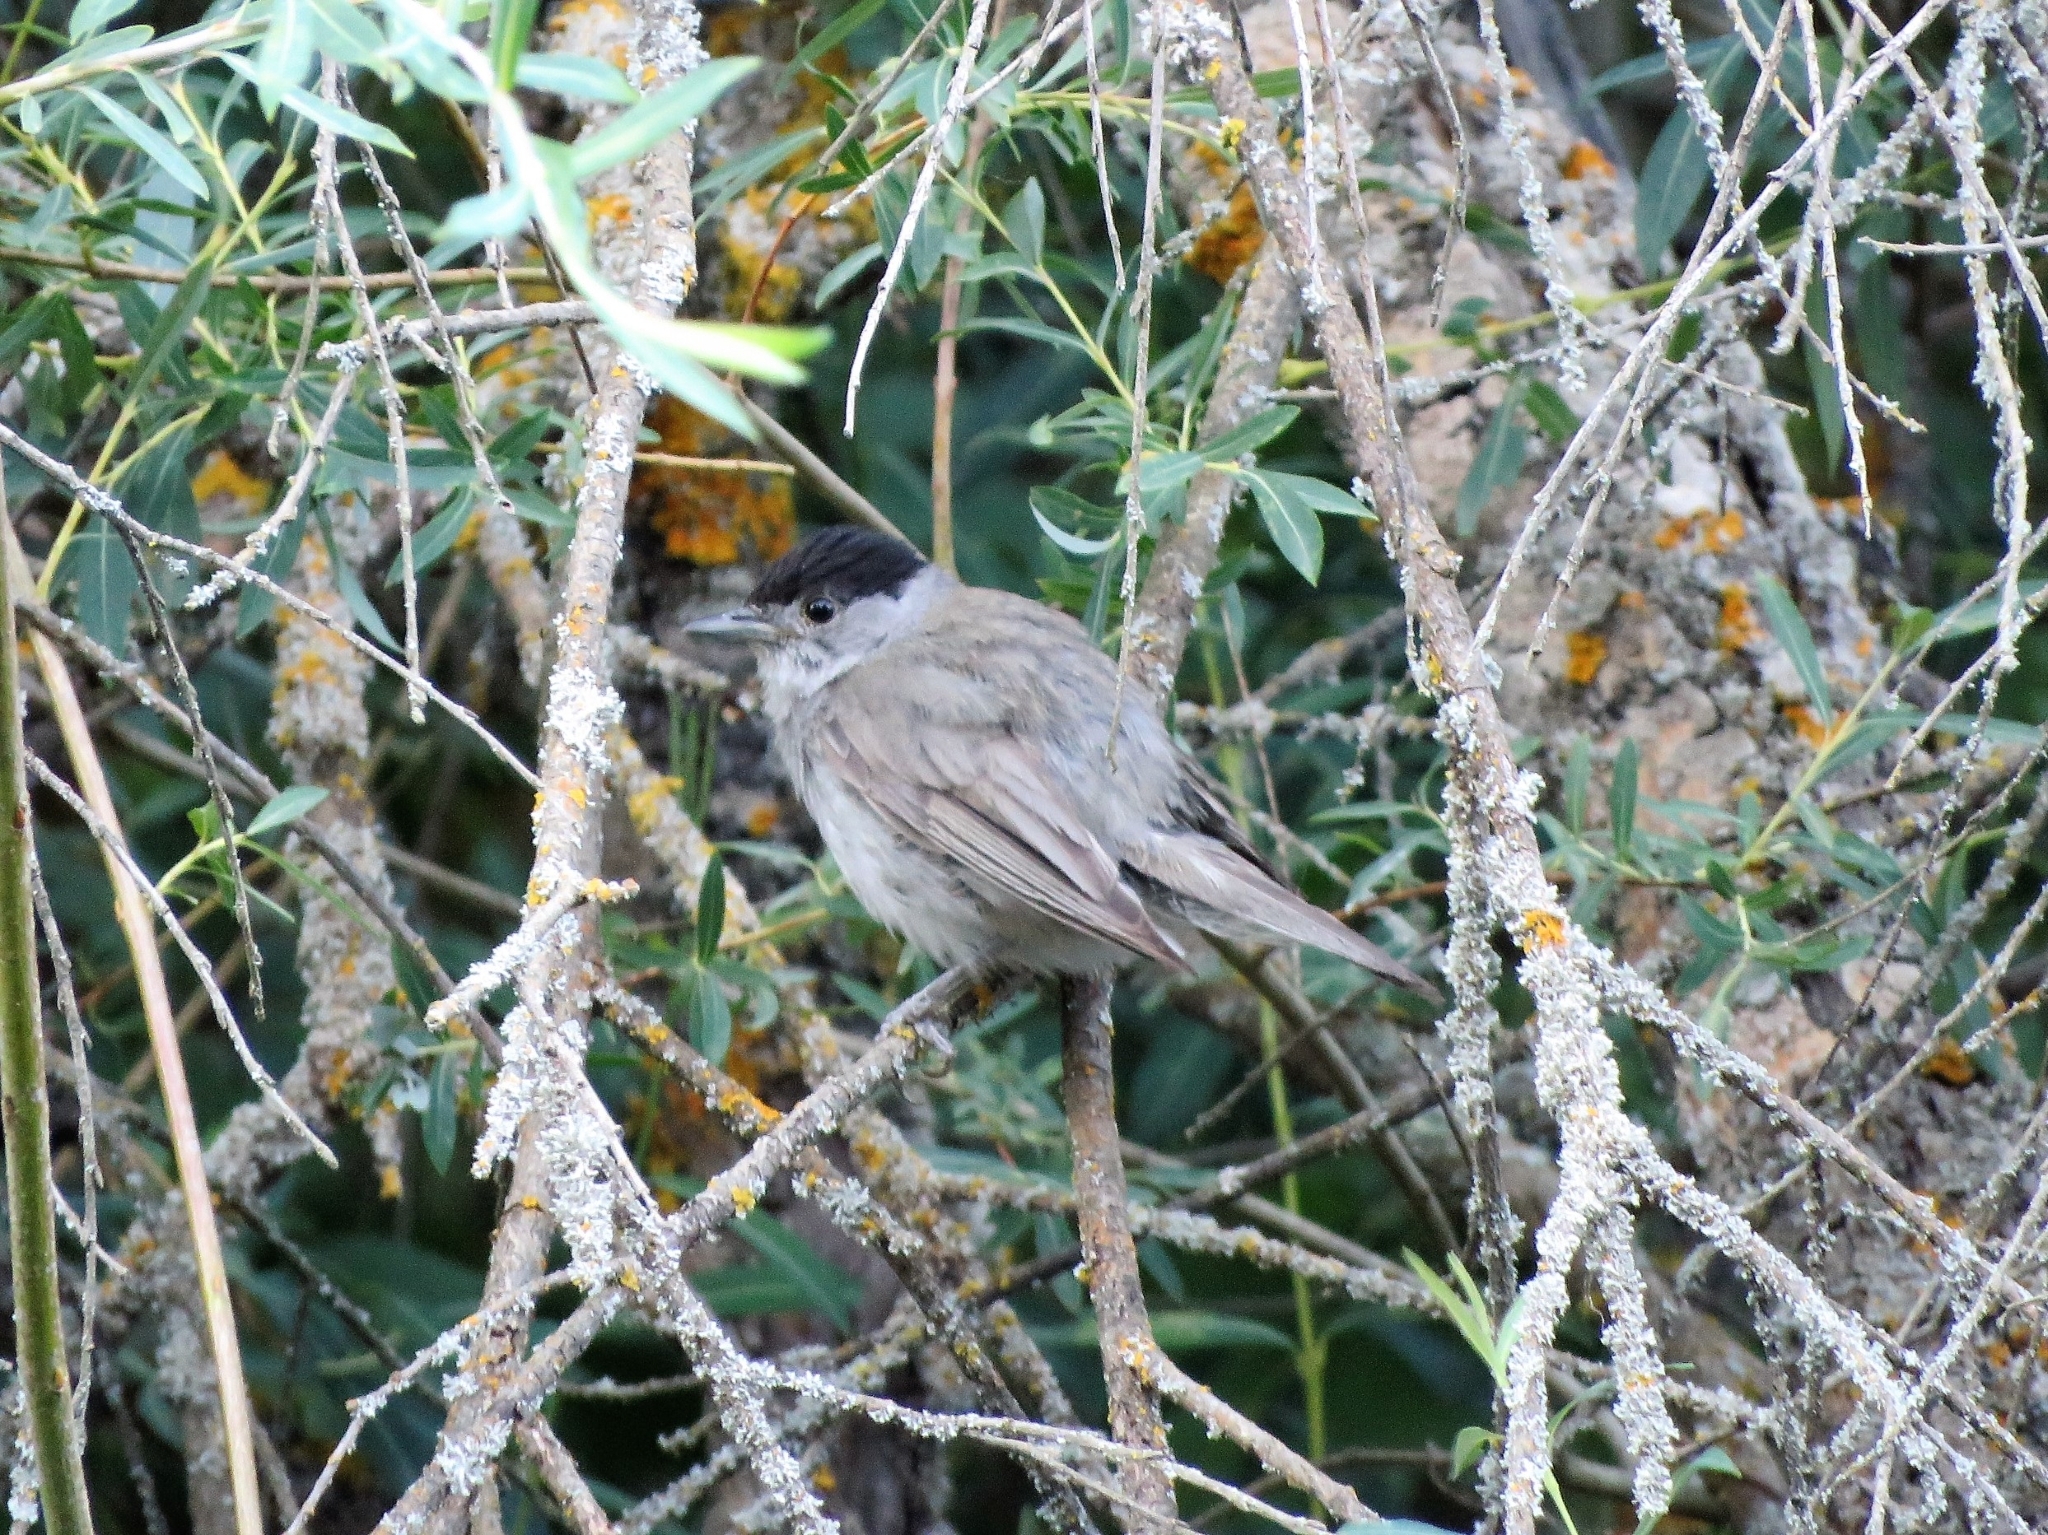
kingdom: Animalia
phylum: Chordata
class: Aves
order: Passeriformes
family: Sylviidae
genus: Sylvia
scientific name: Sylvia atricapilla
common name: Eurasian blackcap
